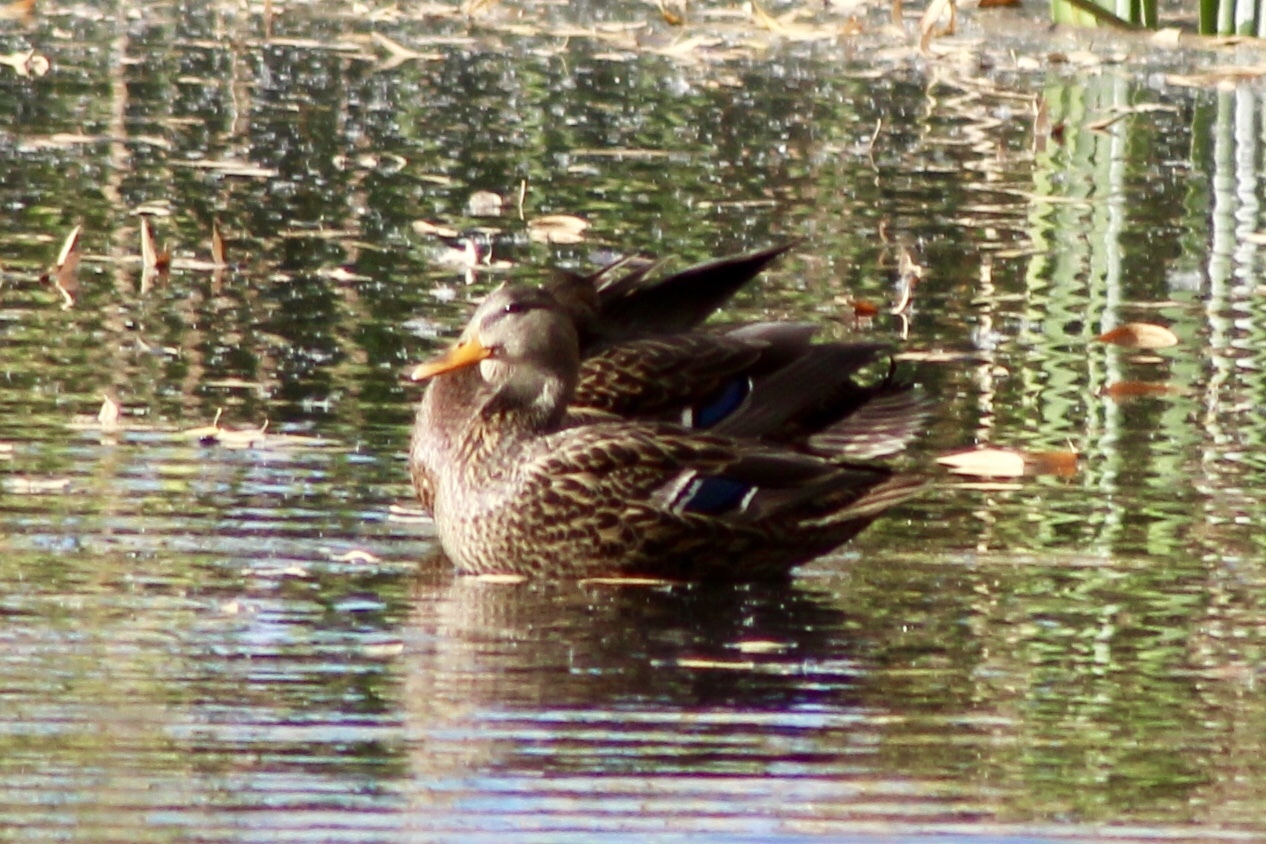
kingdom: Animalia
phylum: Chordata
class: Aves
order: Anseriformes
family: Anatidae
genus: Anas
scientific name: Anas platyrhynchos
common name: Mallard
